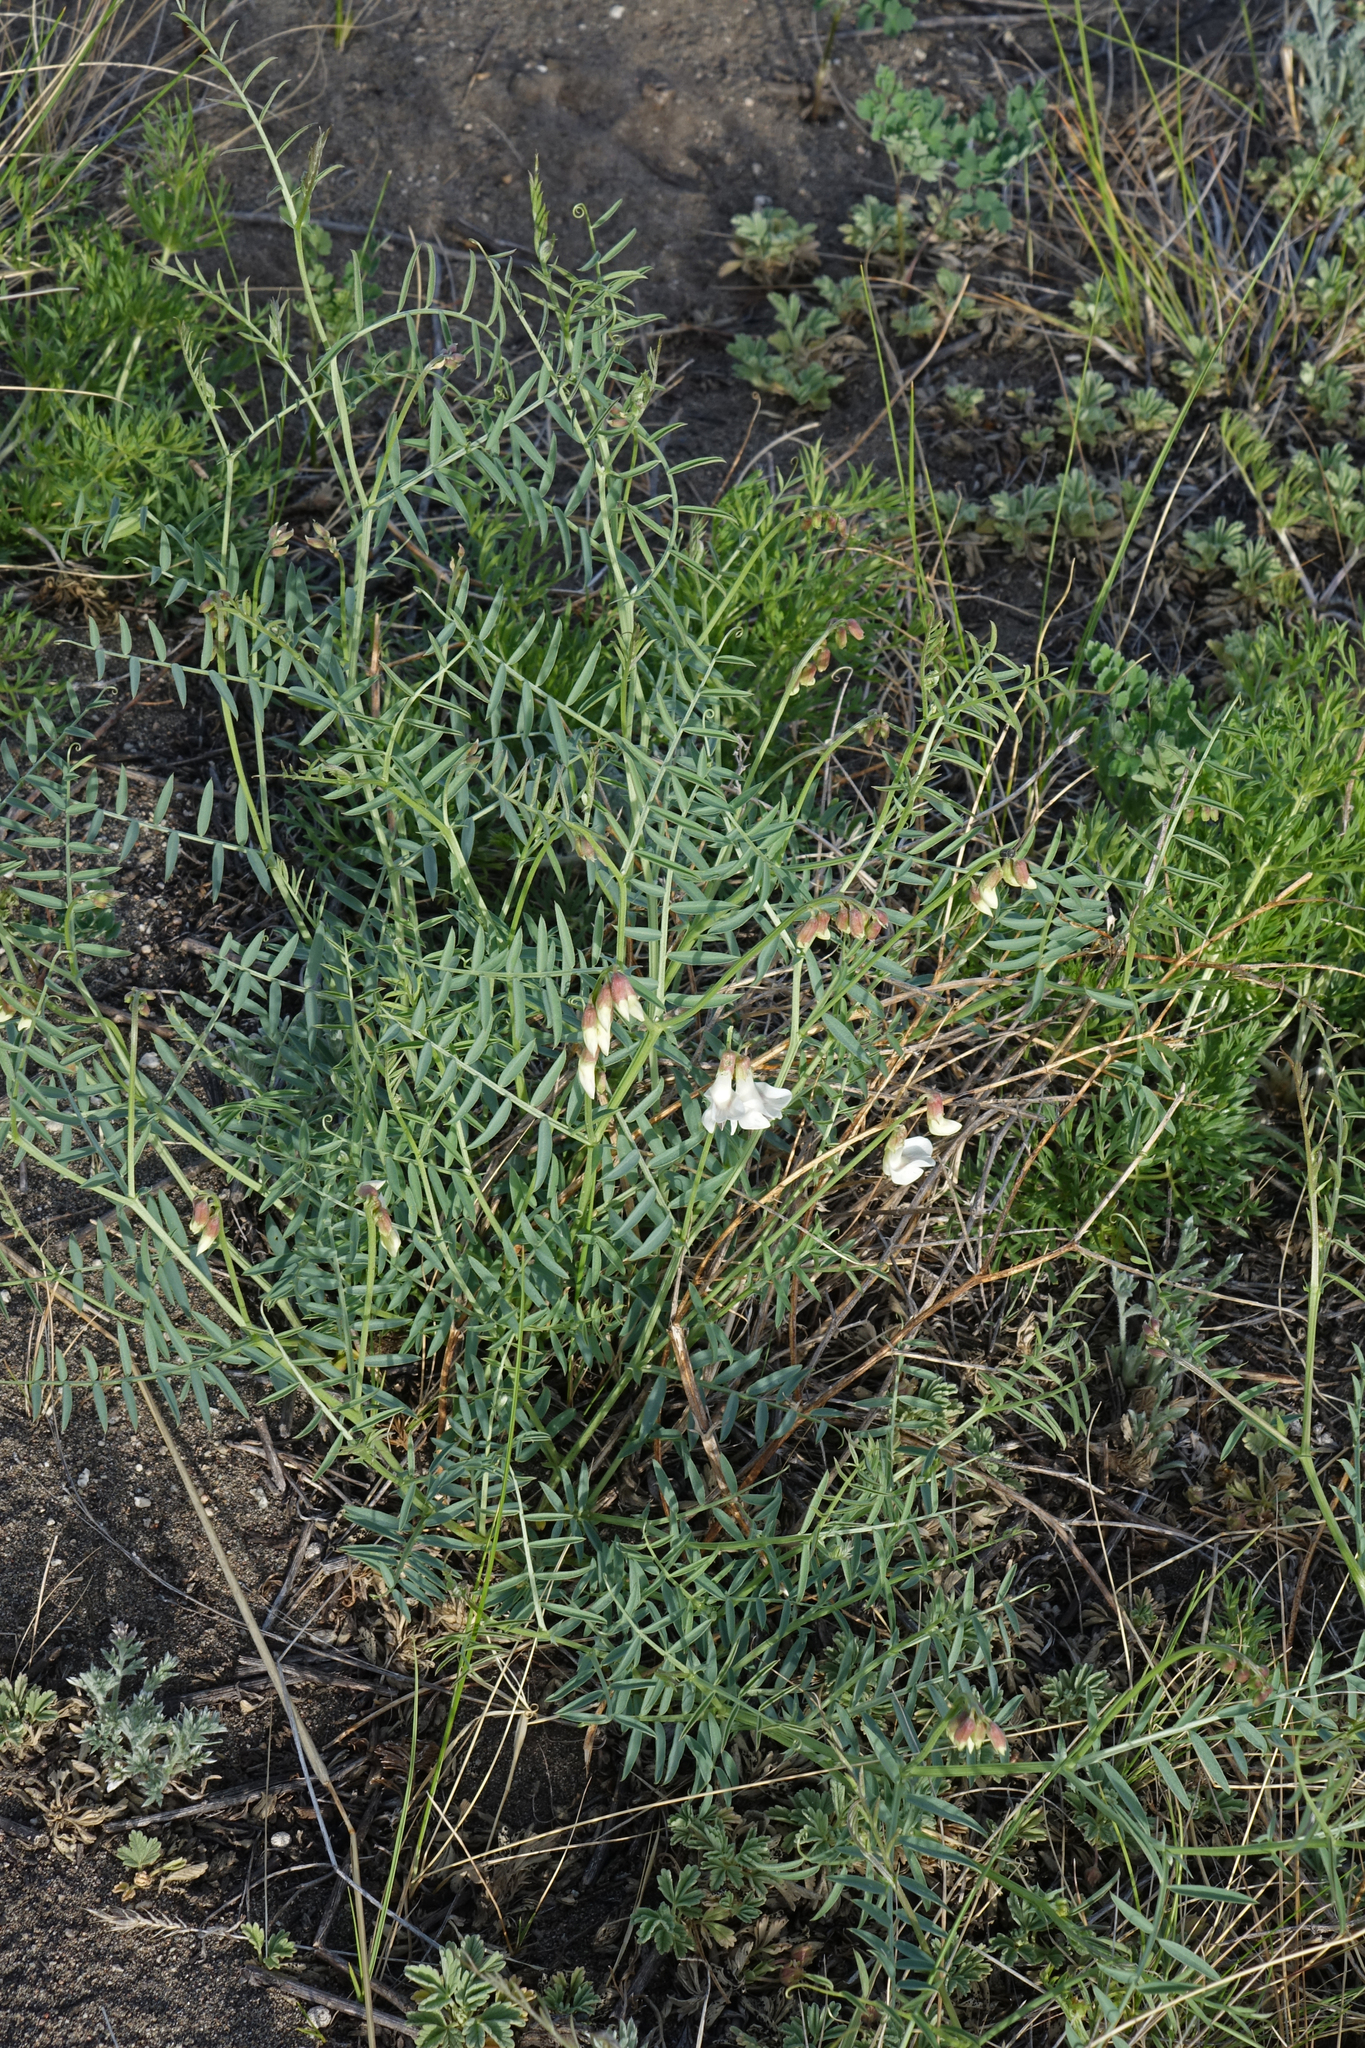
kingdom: Plantae
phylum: Tracheophyta
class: Magnoliopsida
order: Fabales
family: Fabaceae
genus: Vicia
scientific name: Vicia costata
